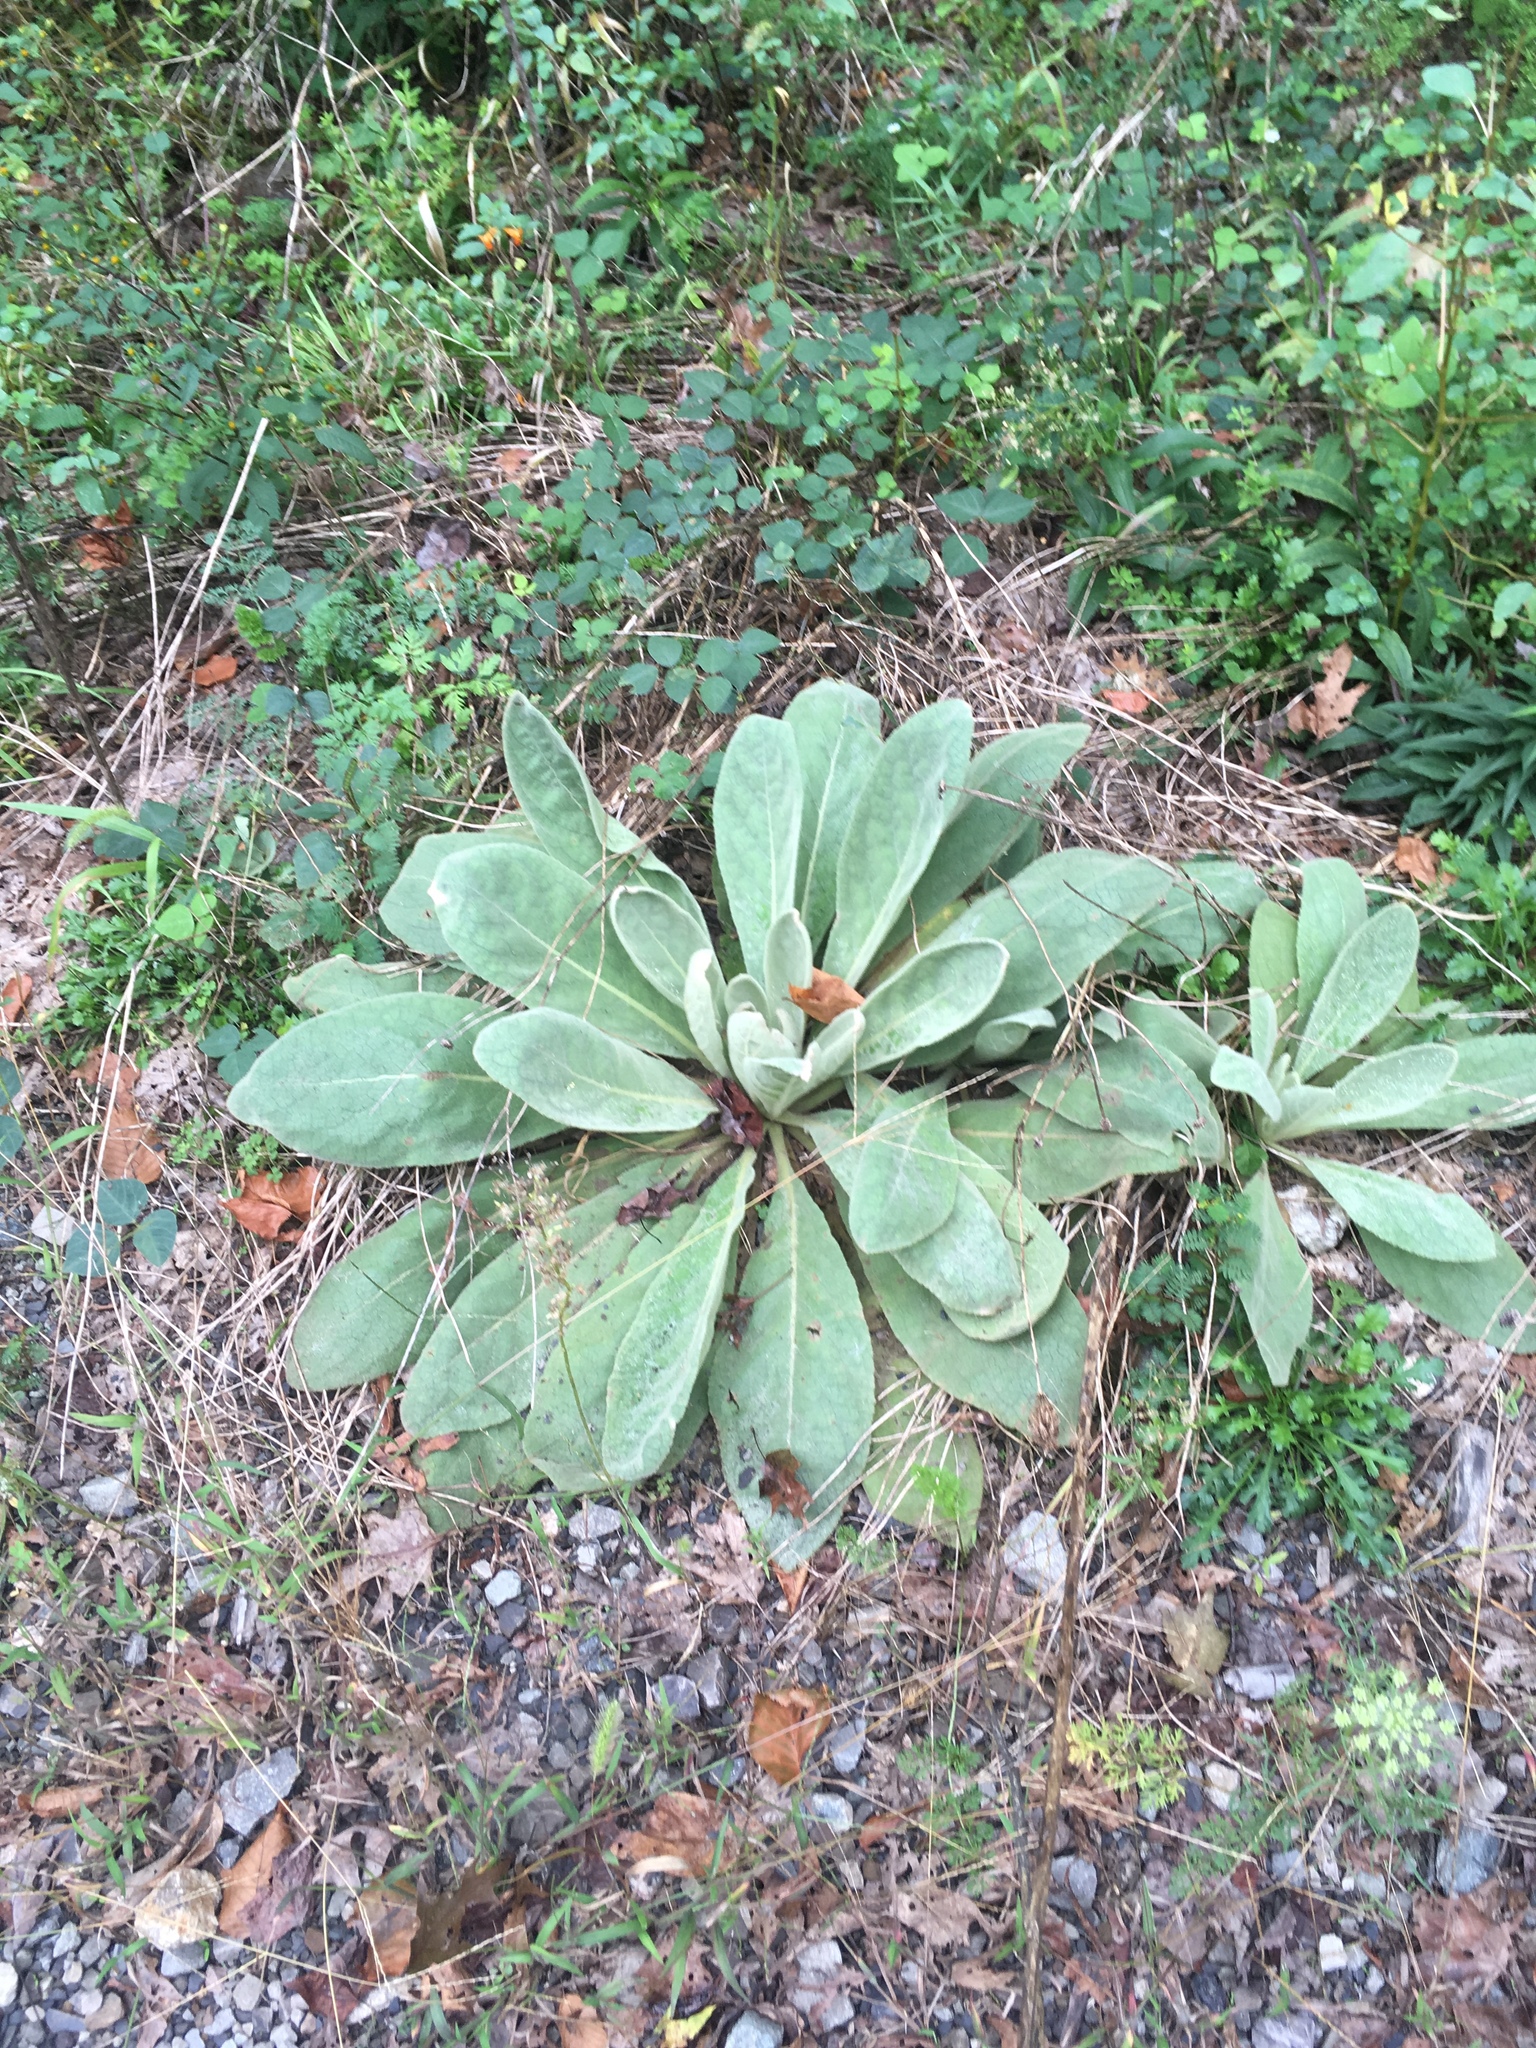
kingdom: Plantae
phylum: Tracheophyta
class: Magnoliopsida
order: Lamiales
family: Scrophulariaceae
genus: Verbascum
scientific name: Verbascum thapsus
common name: Common mullein
